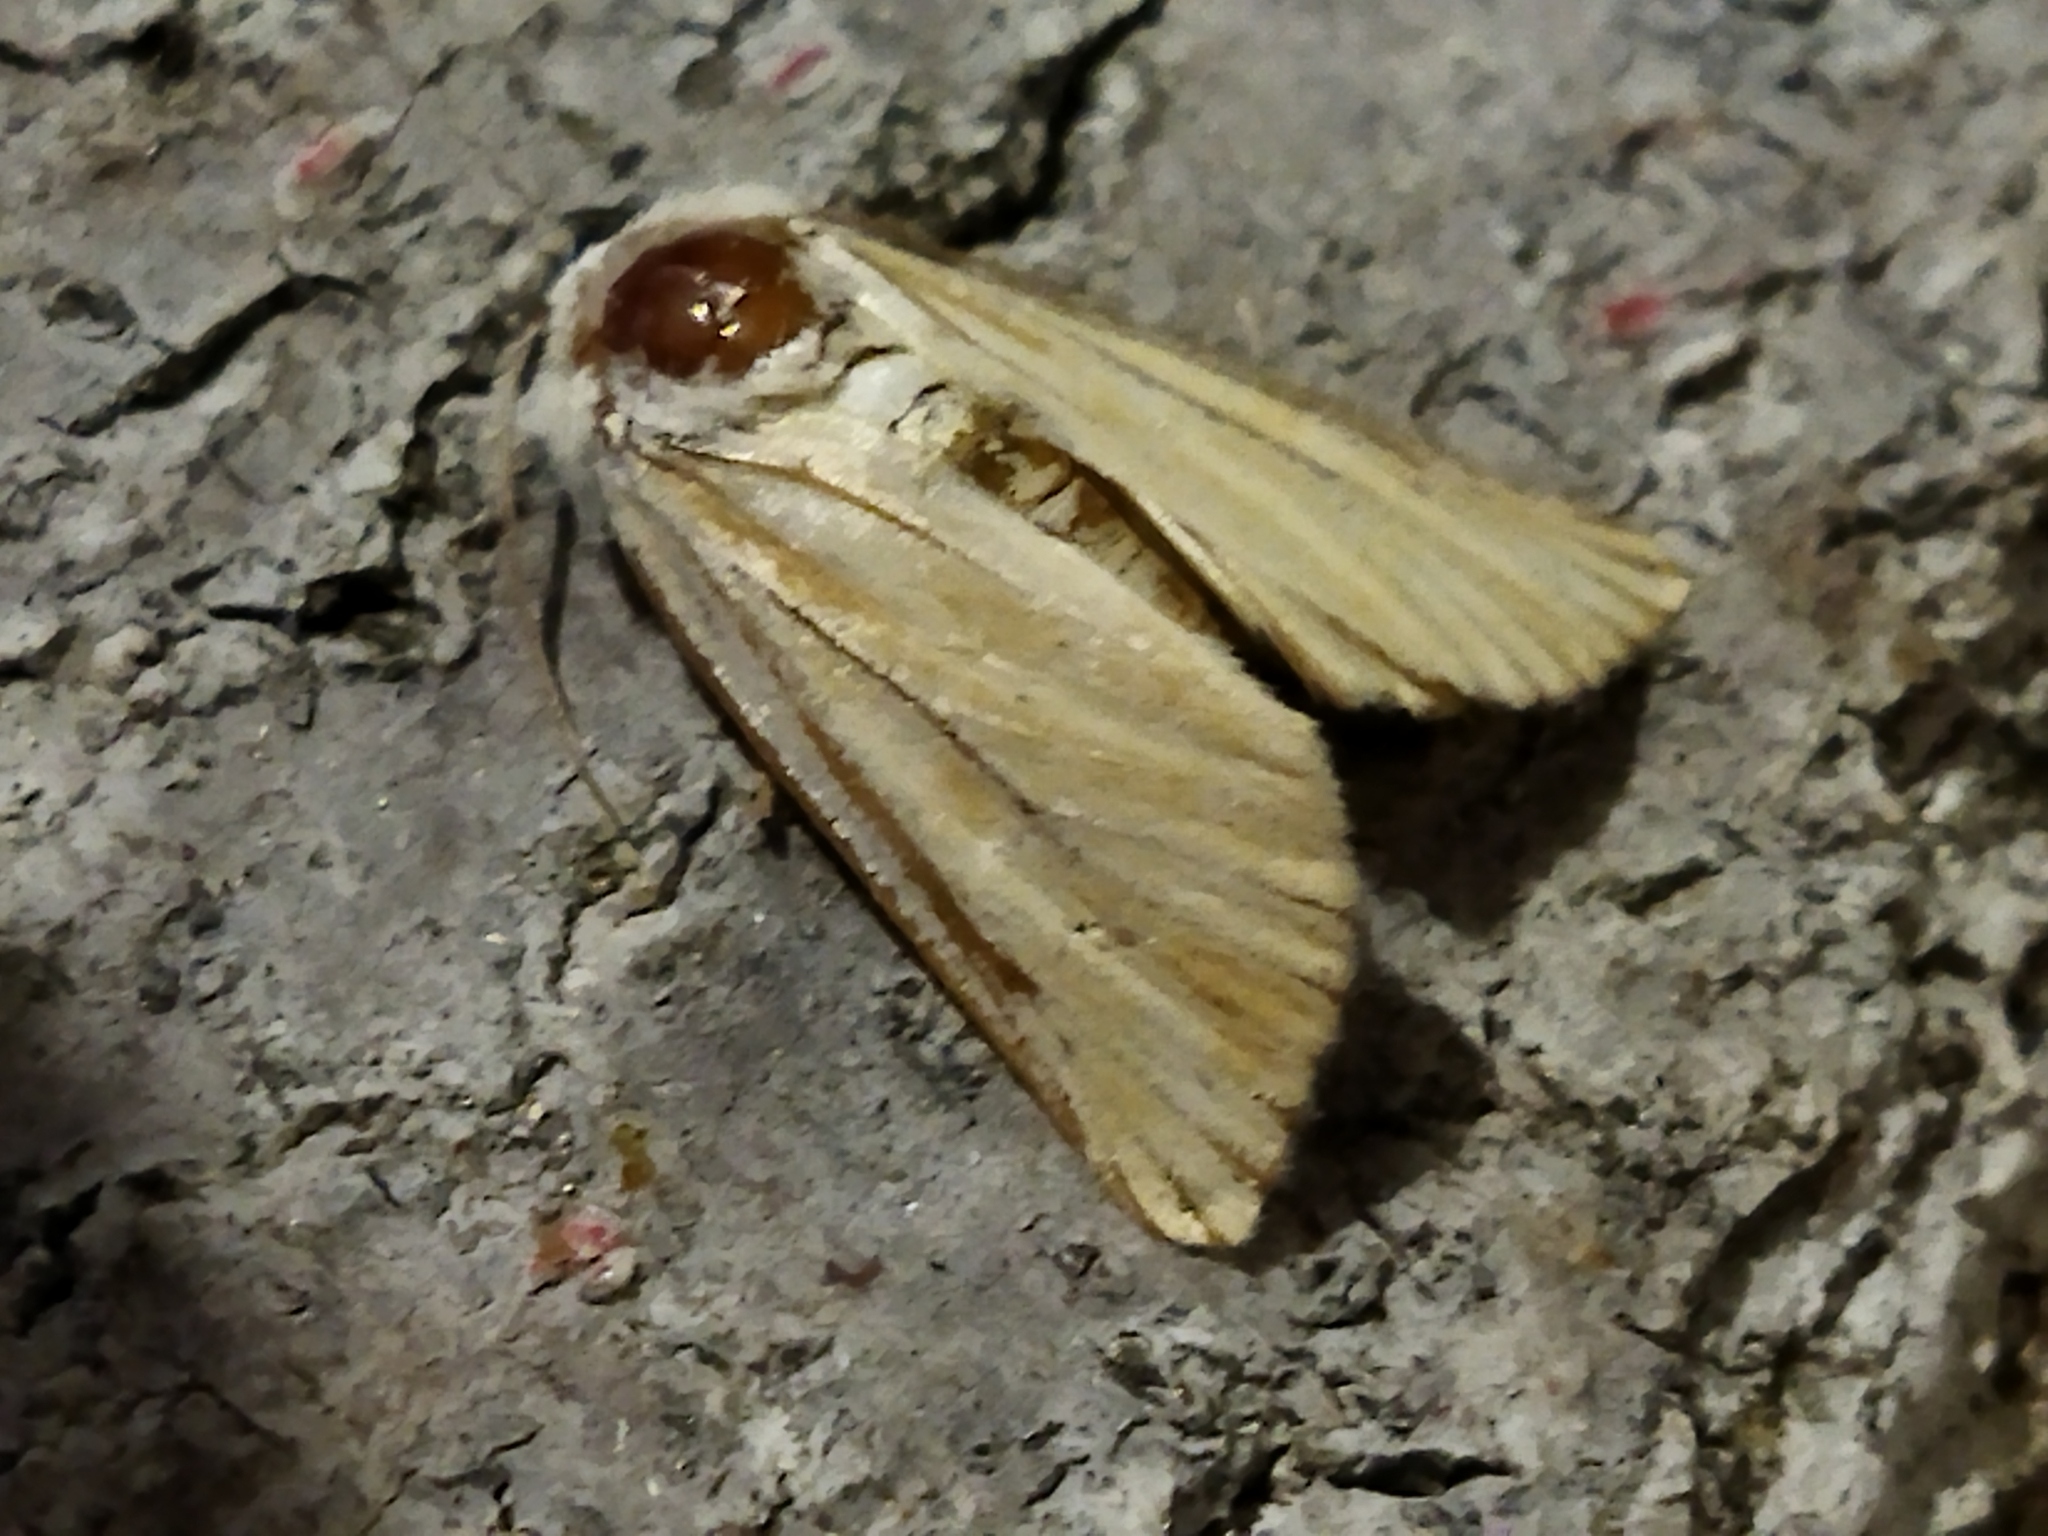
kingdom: Animalia
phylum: Arthropoda
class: Insecta
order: Lepidoptera
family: Noctuidae
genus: Oria
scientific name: Oria musculosa
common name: Brighton wainscot
